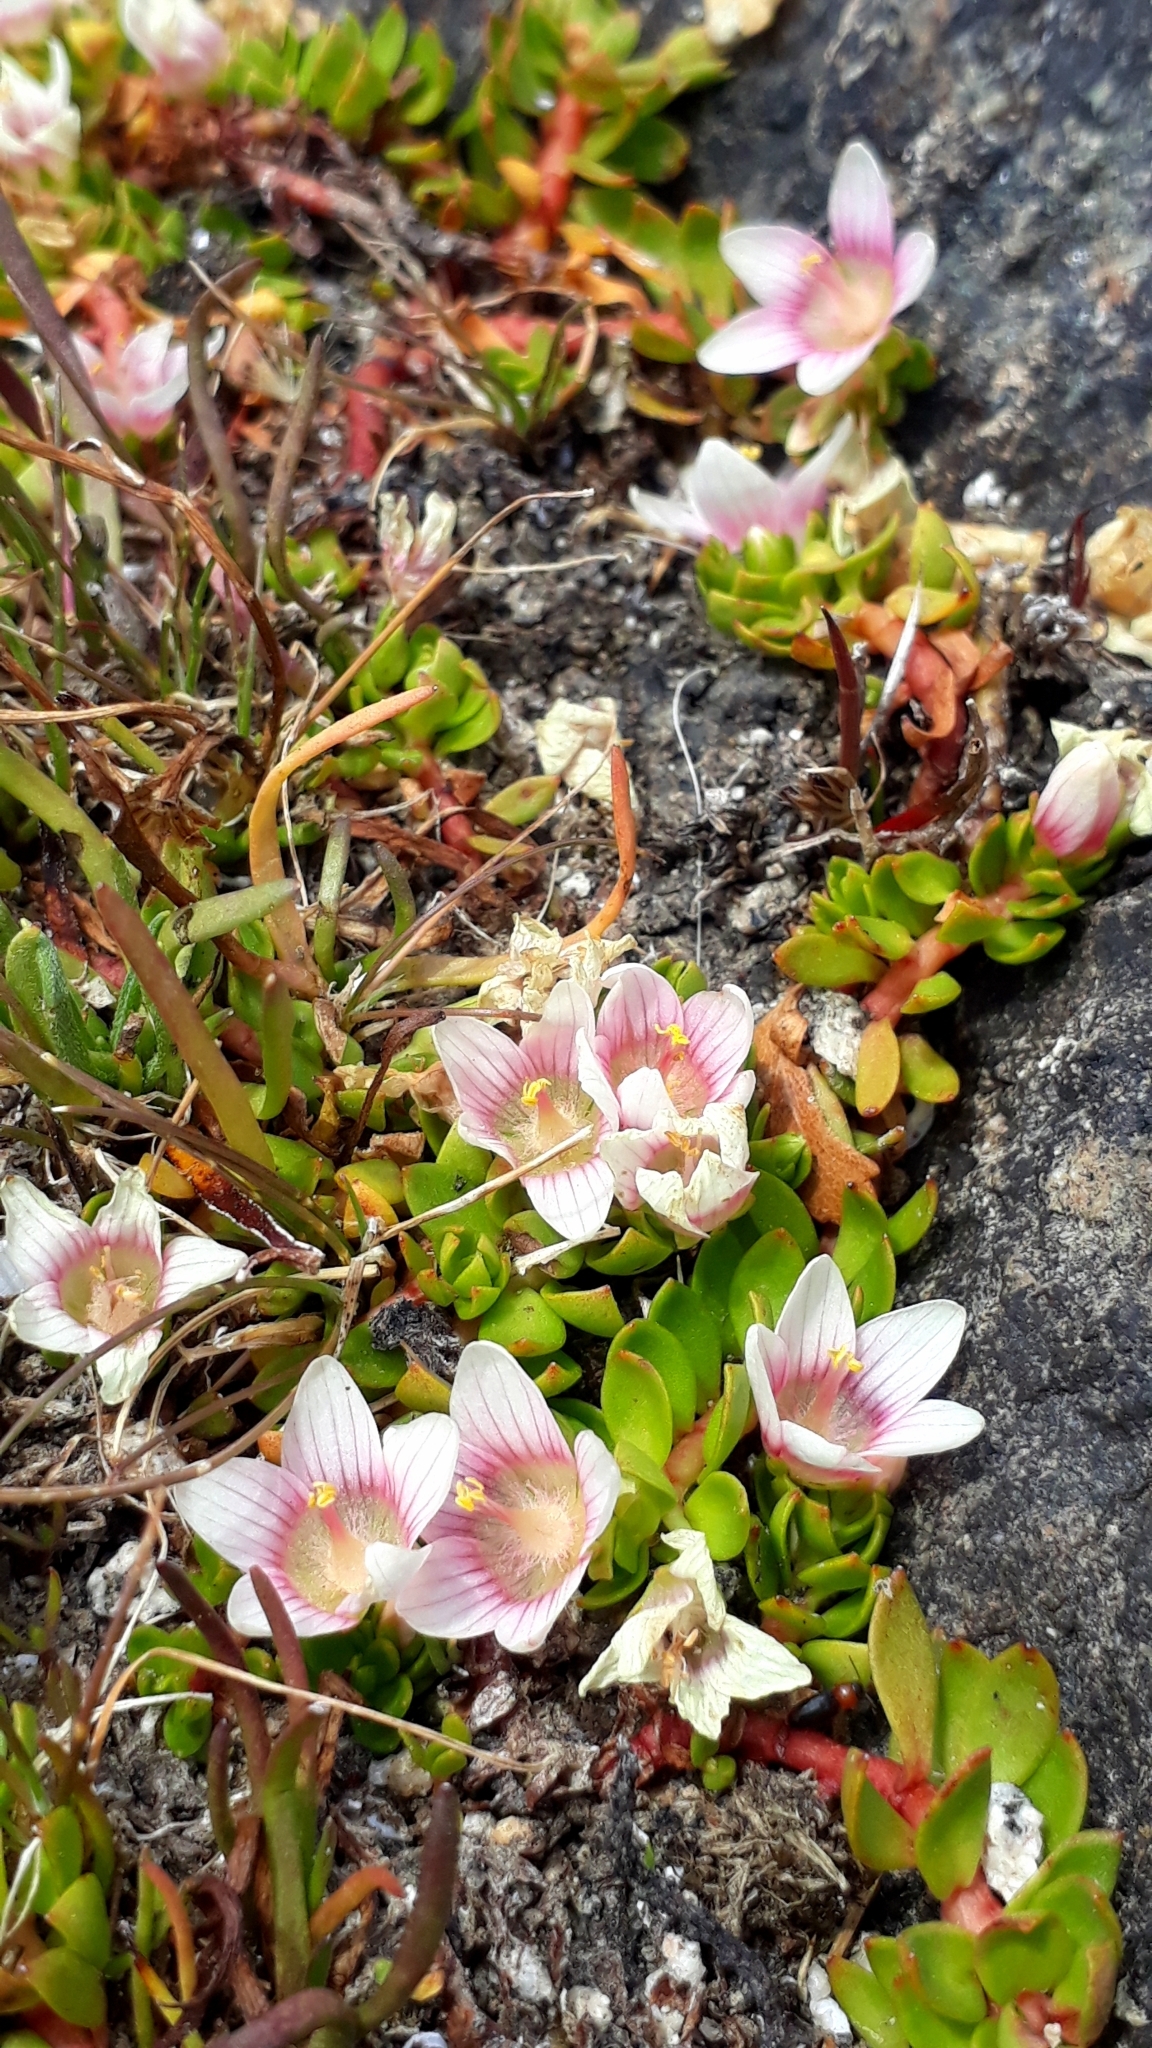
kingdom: Plantae
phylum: Tracheophyta
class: Magnoliopsida
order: Ericales
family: Primulaceae
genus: Lysimachia
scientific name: Lysimachia amoena
